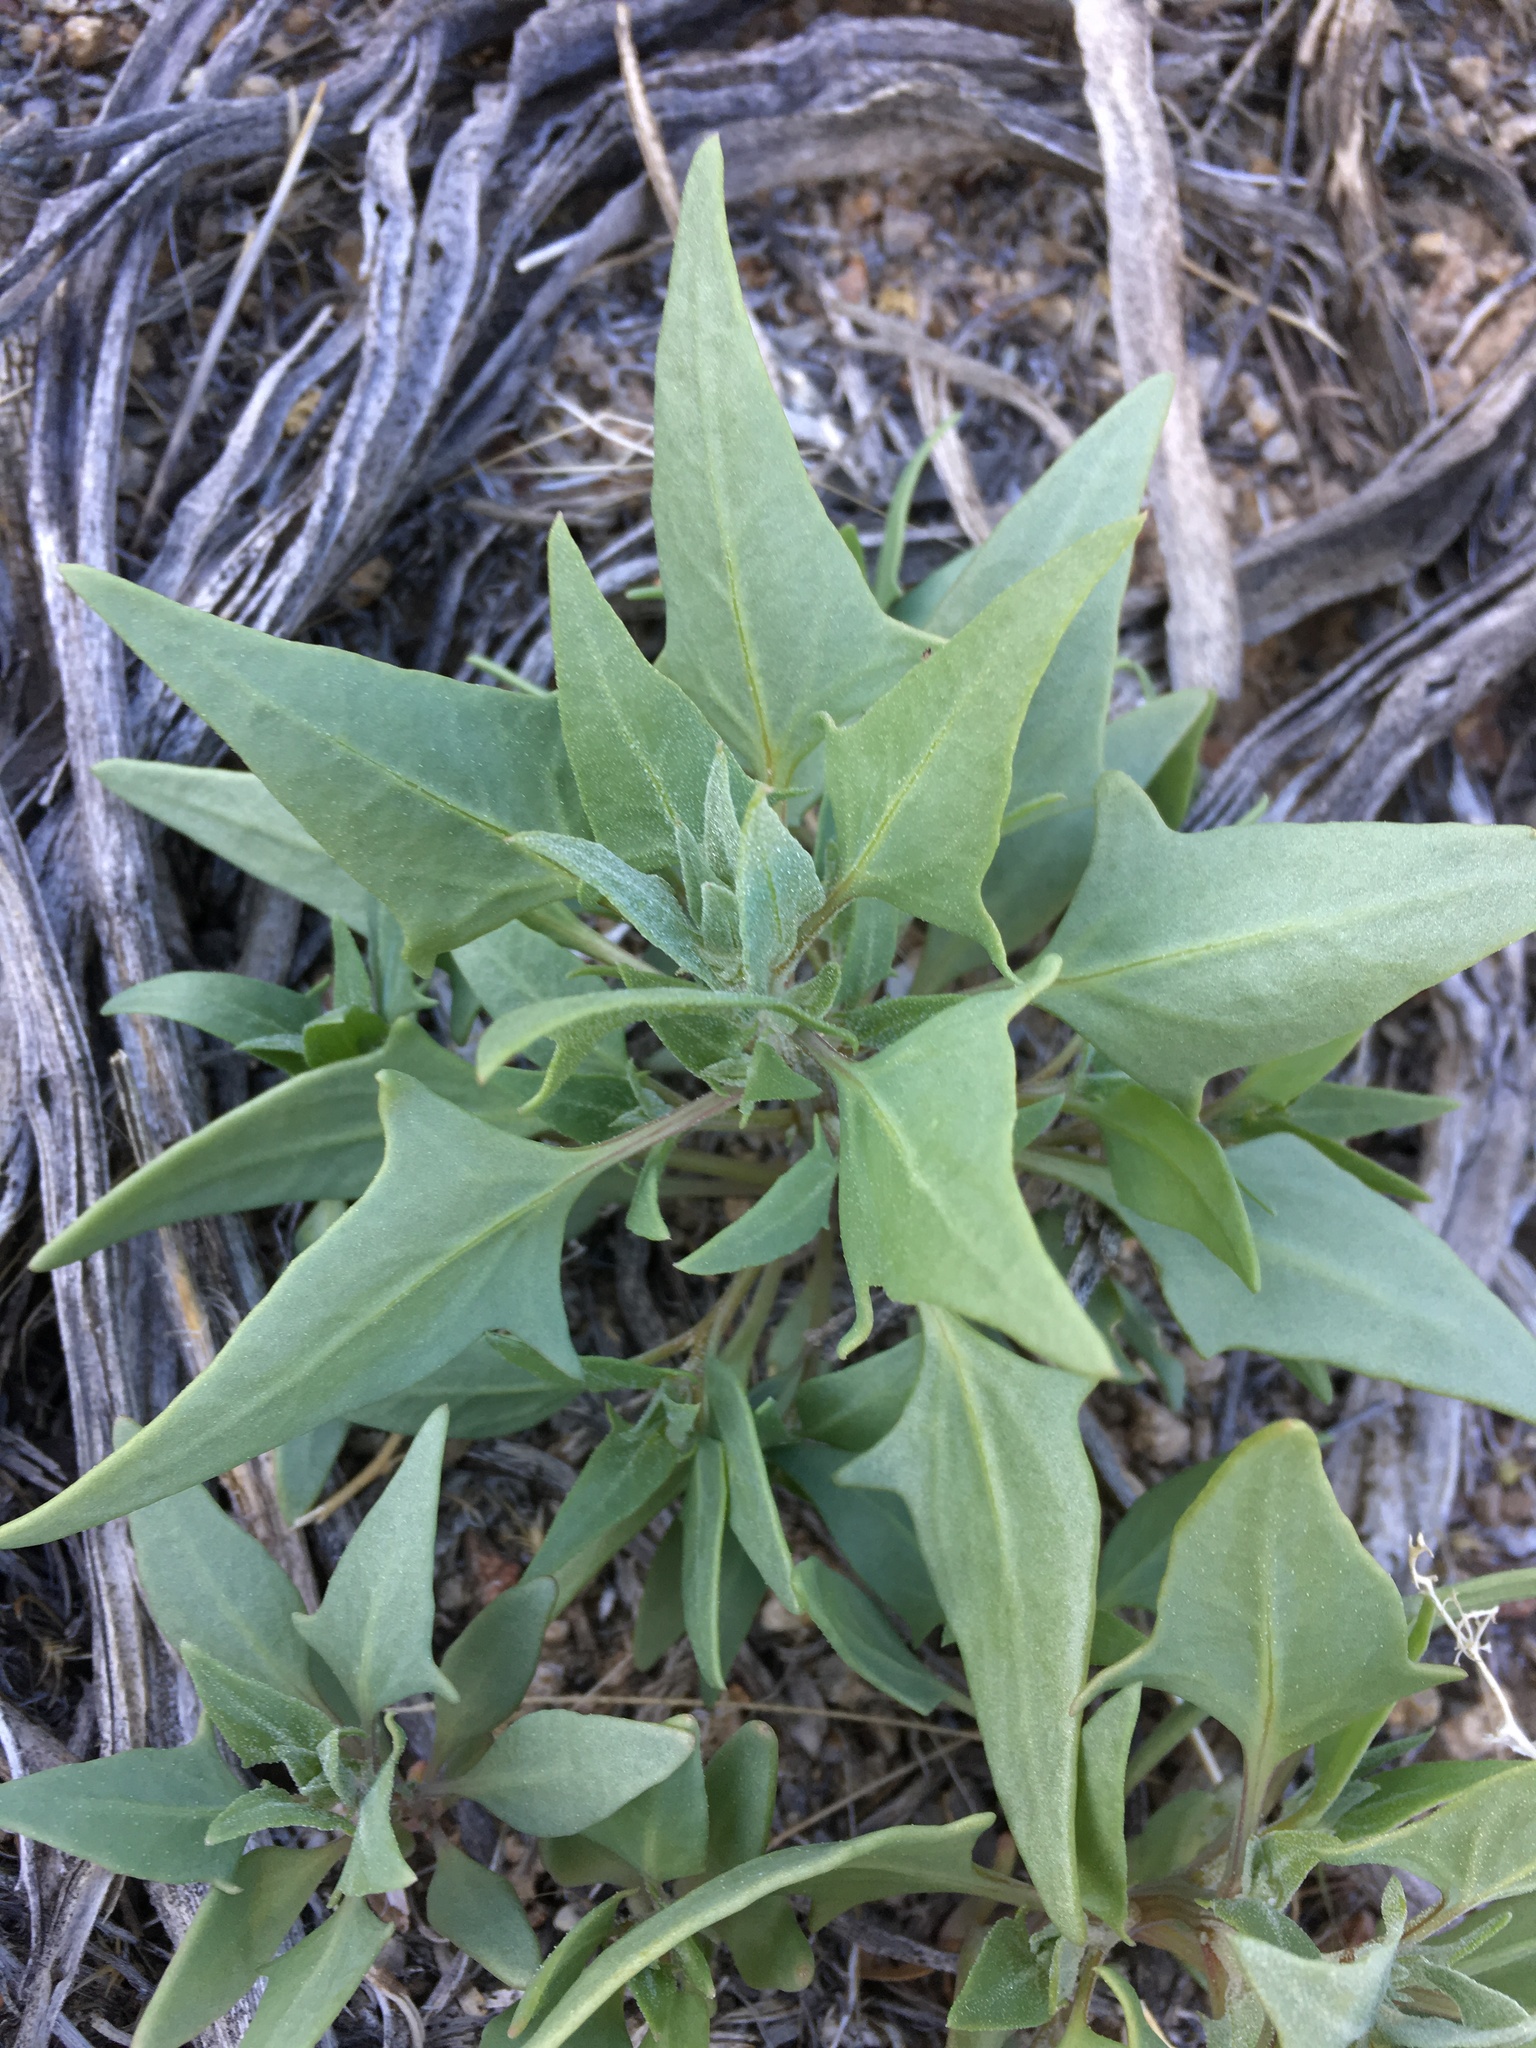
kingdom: Plantae
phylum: Tracheophyta
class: Magnoliopsida
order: Caryophyllales
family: Amaranthaceae
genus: Stutzia
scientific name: Stutzia covillei
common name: Coville's orach
